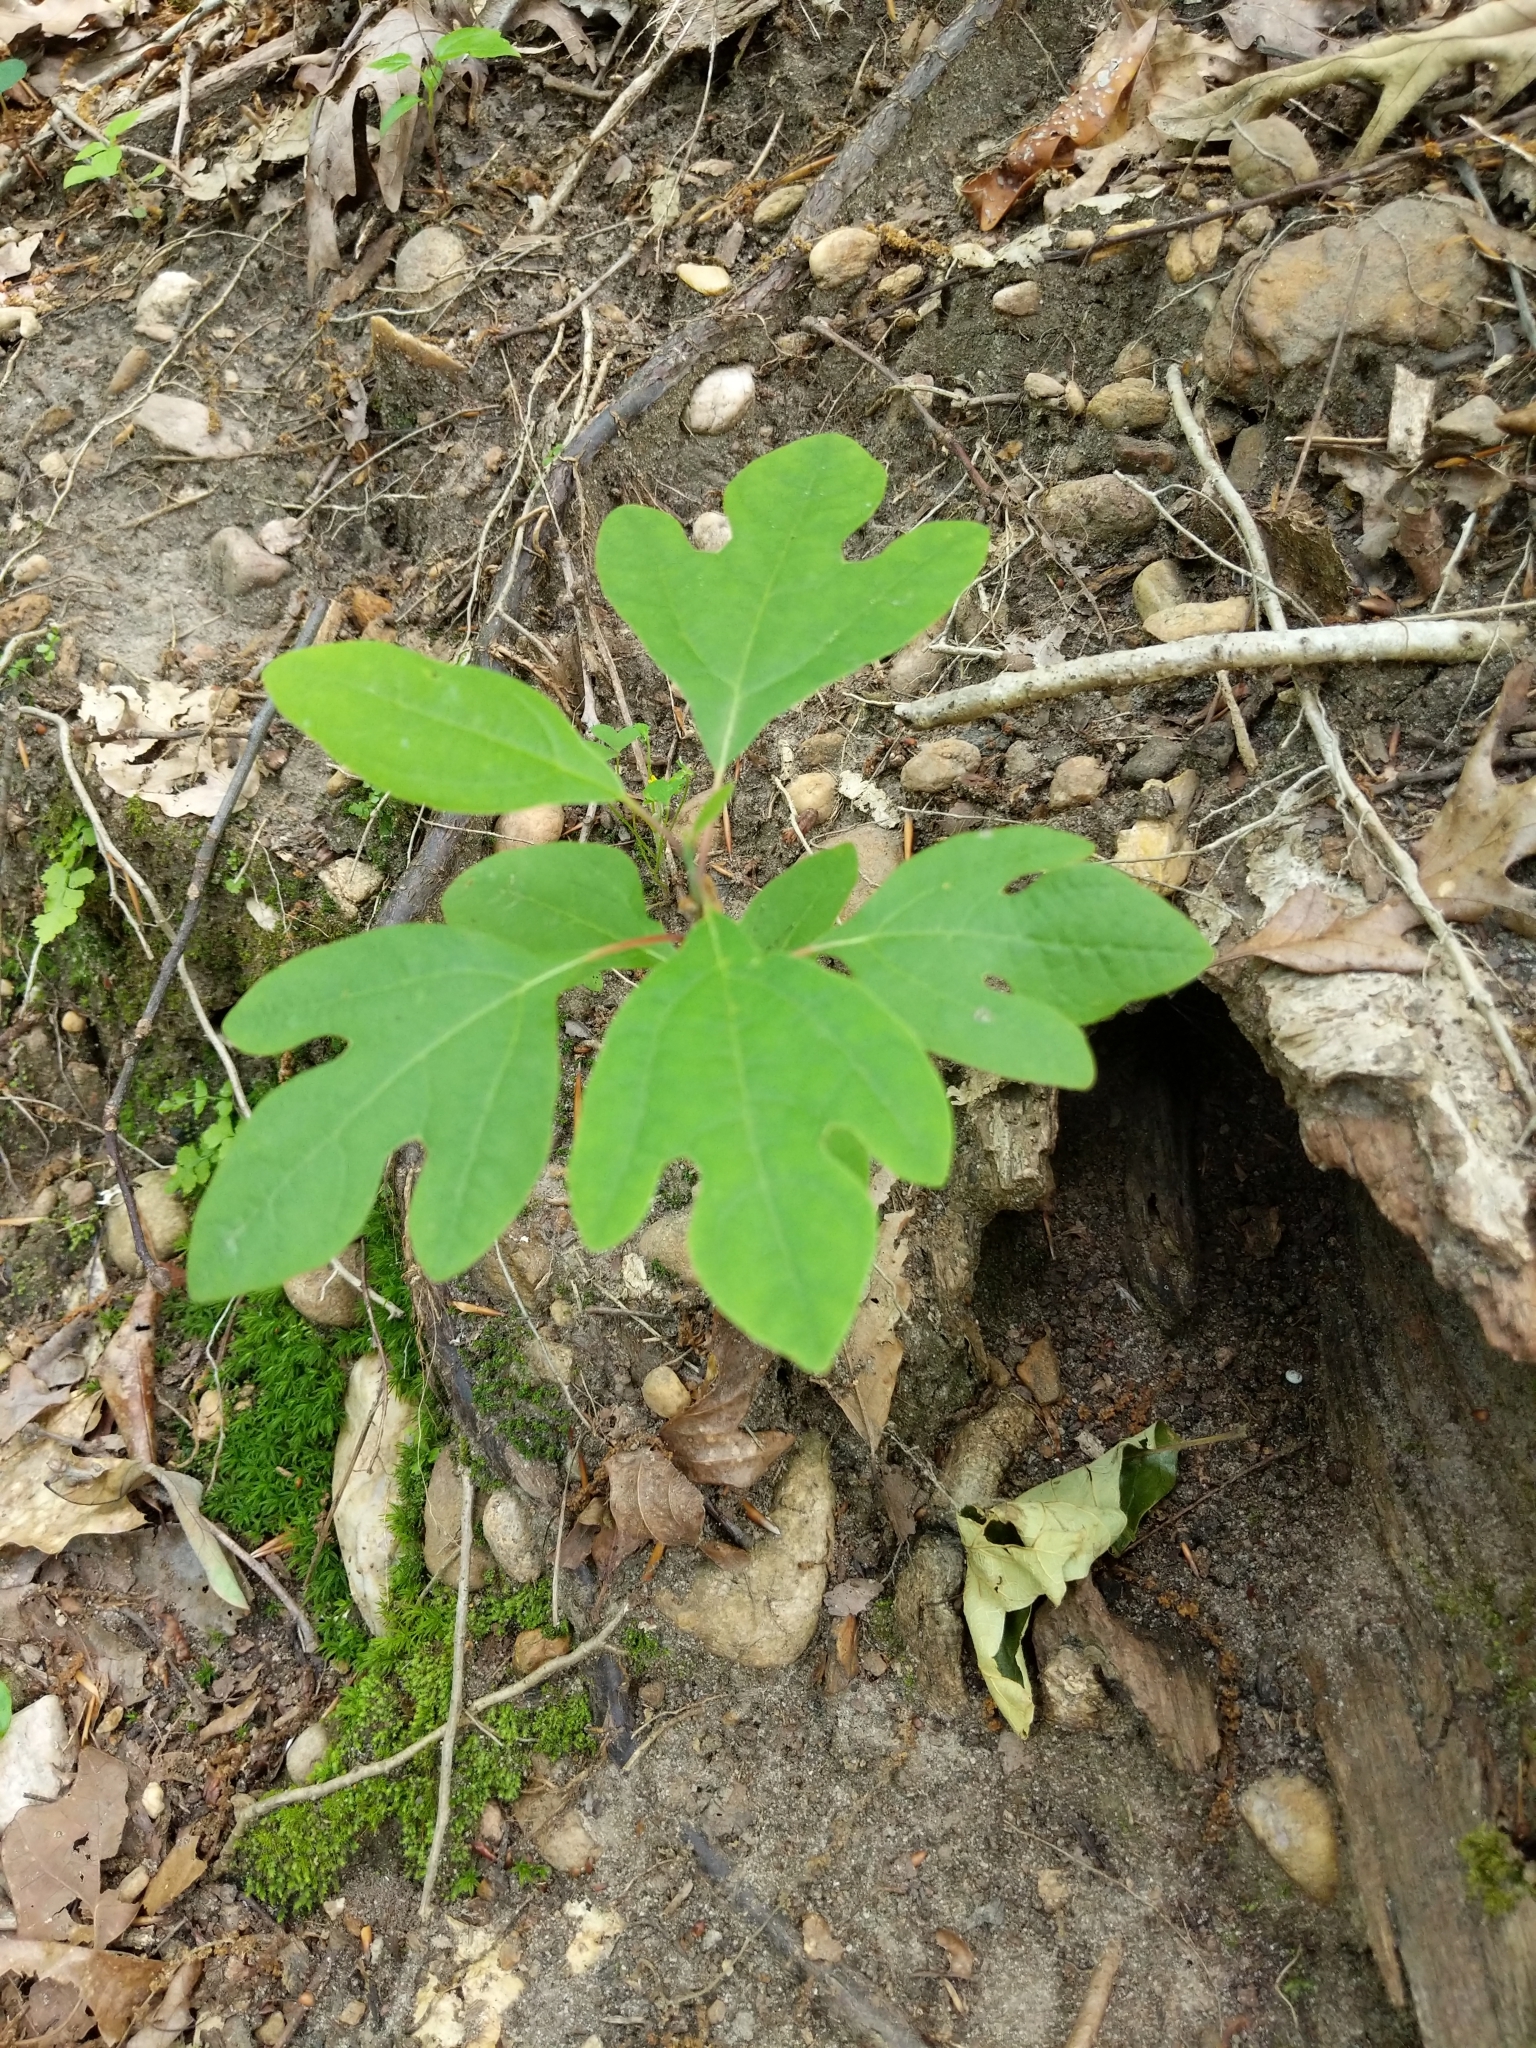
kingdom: Plantae
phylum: Tracheophyta
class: Magnoliopsida
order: Laurales
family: Lauraceae
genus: Sassafras
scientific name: Sassafras albidum
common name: Sassafras
